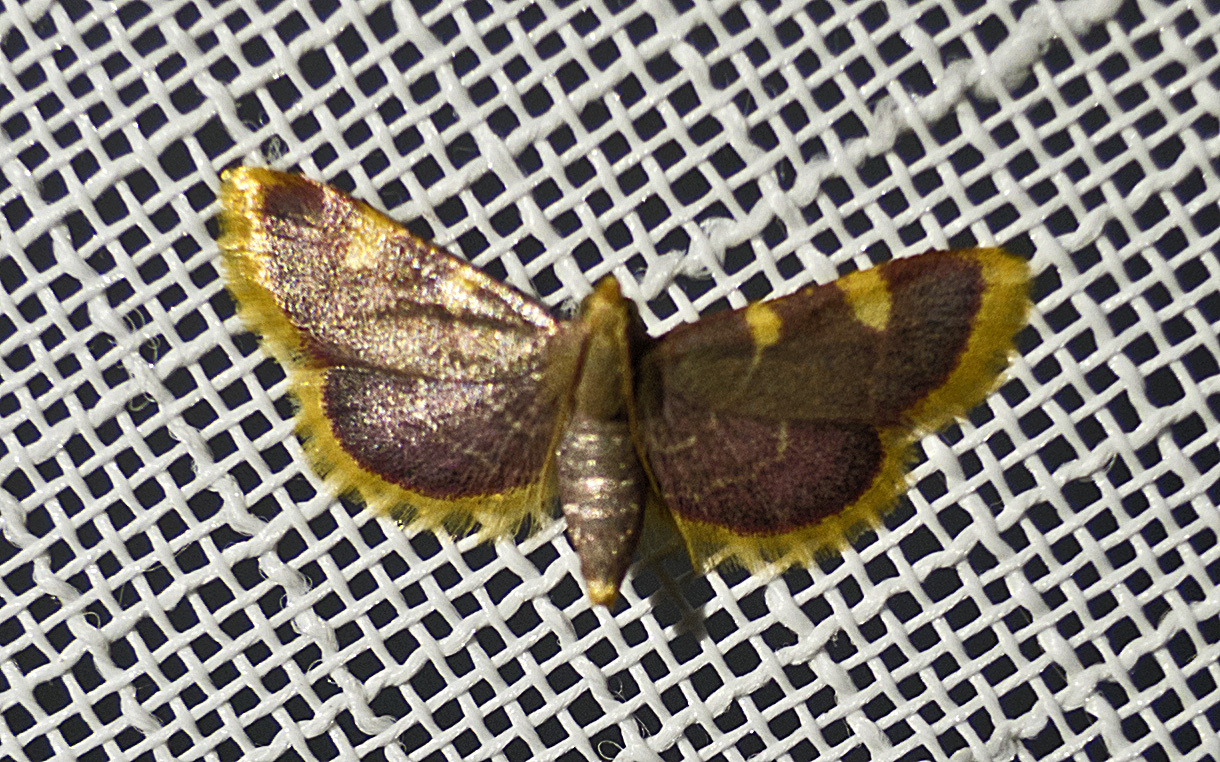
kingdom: Animalia
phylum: Arthropoda
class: Insecta
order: Lepidoptera
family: Pyralidae
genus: Hypsopygia
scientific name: Hypsopygia costalis
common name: Gold triangle
